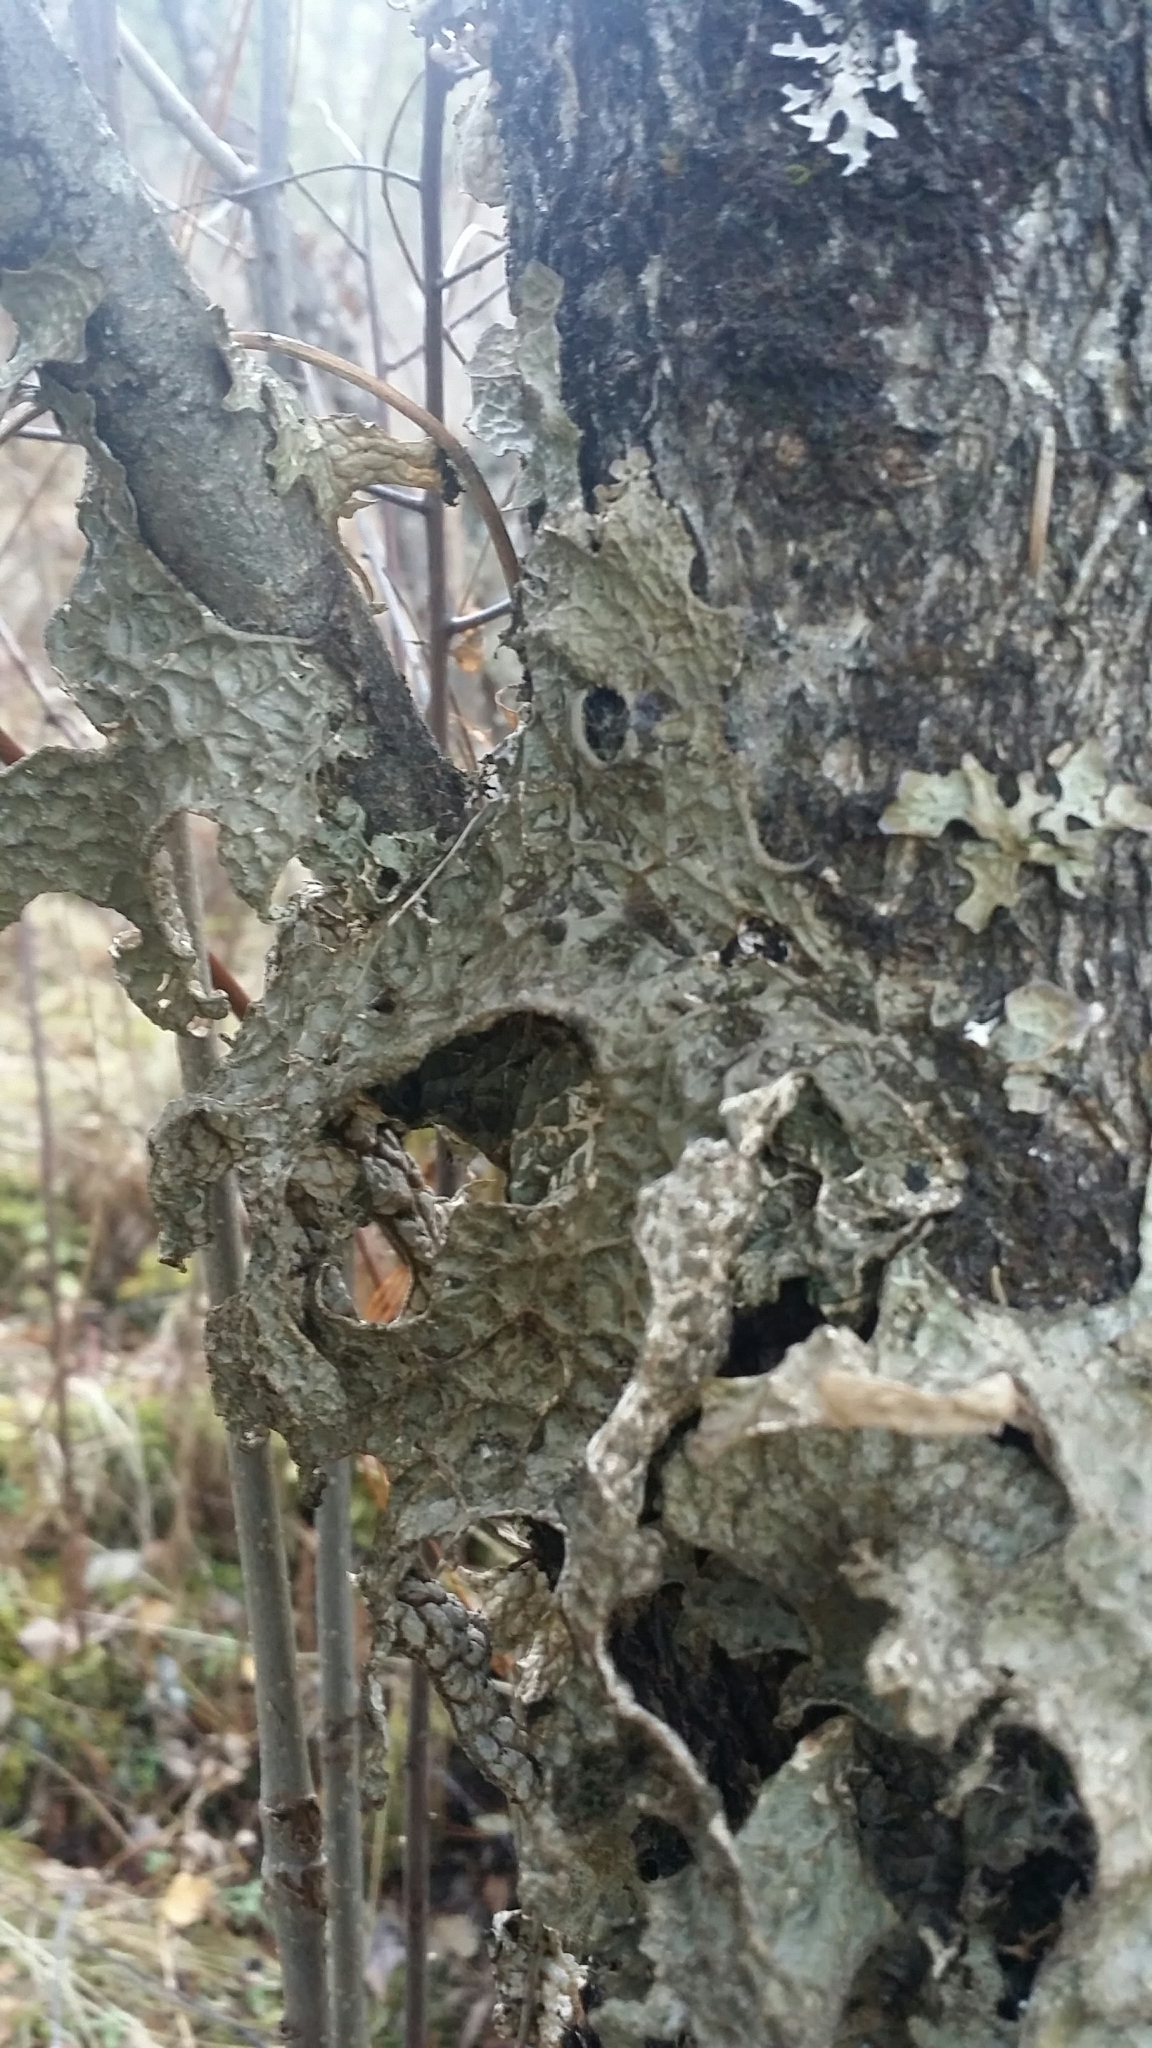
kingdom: Fungi
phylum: Ascomycota
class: Lecanoromycetes
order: Peltigerales
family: Lobariaceae
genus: Lobaria
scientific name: Lobaria pulmonaria
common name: Lungwort
